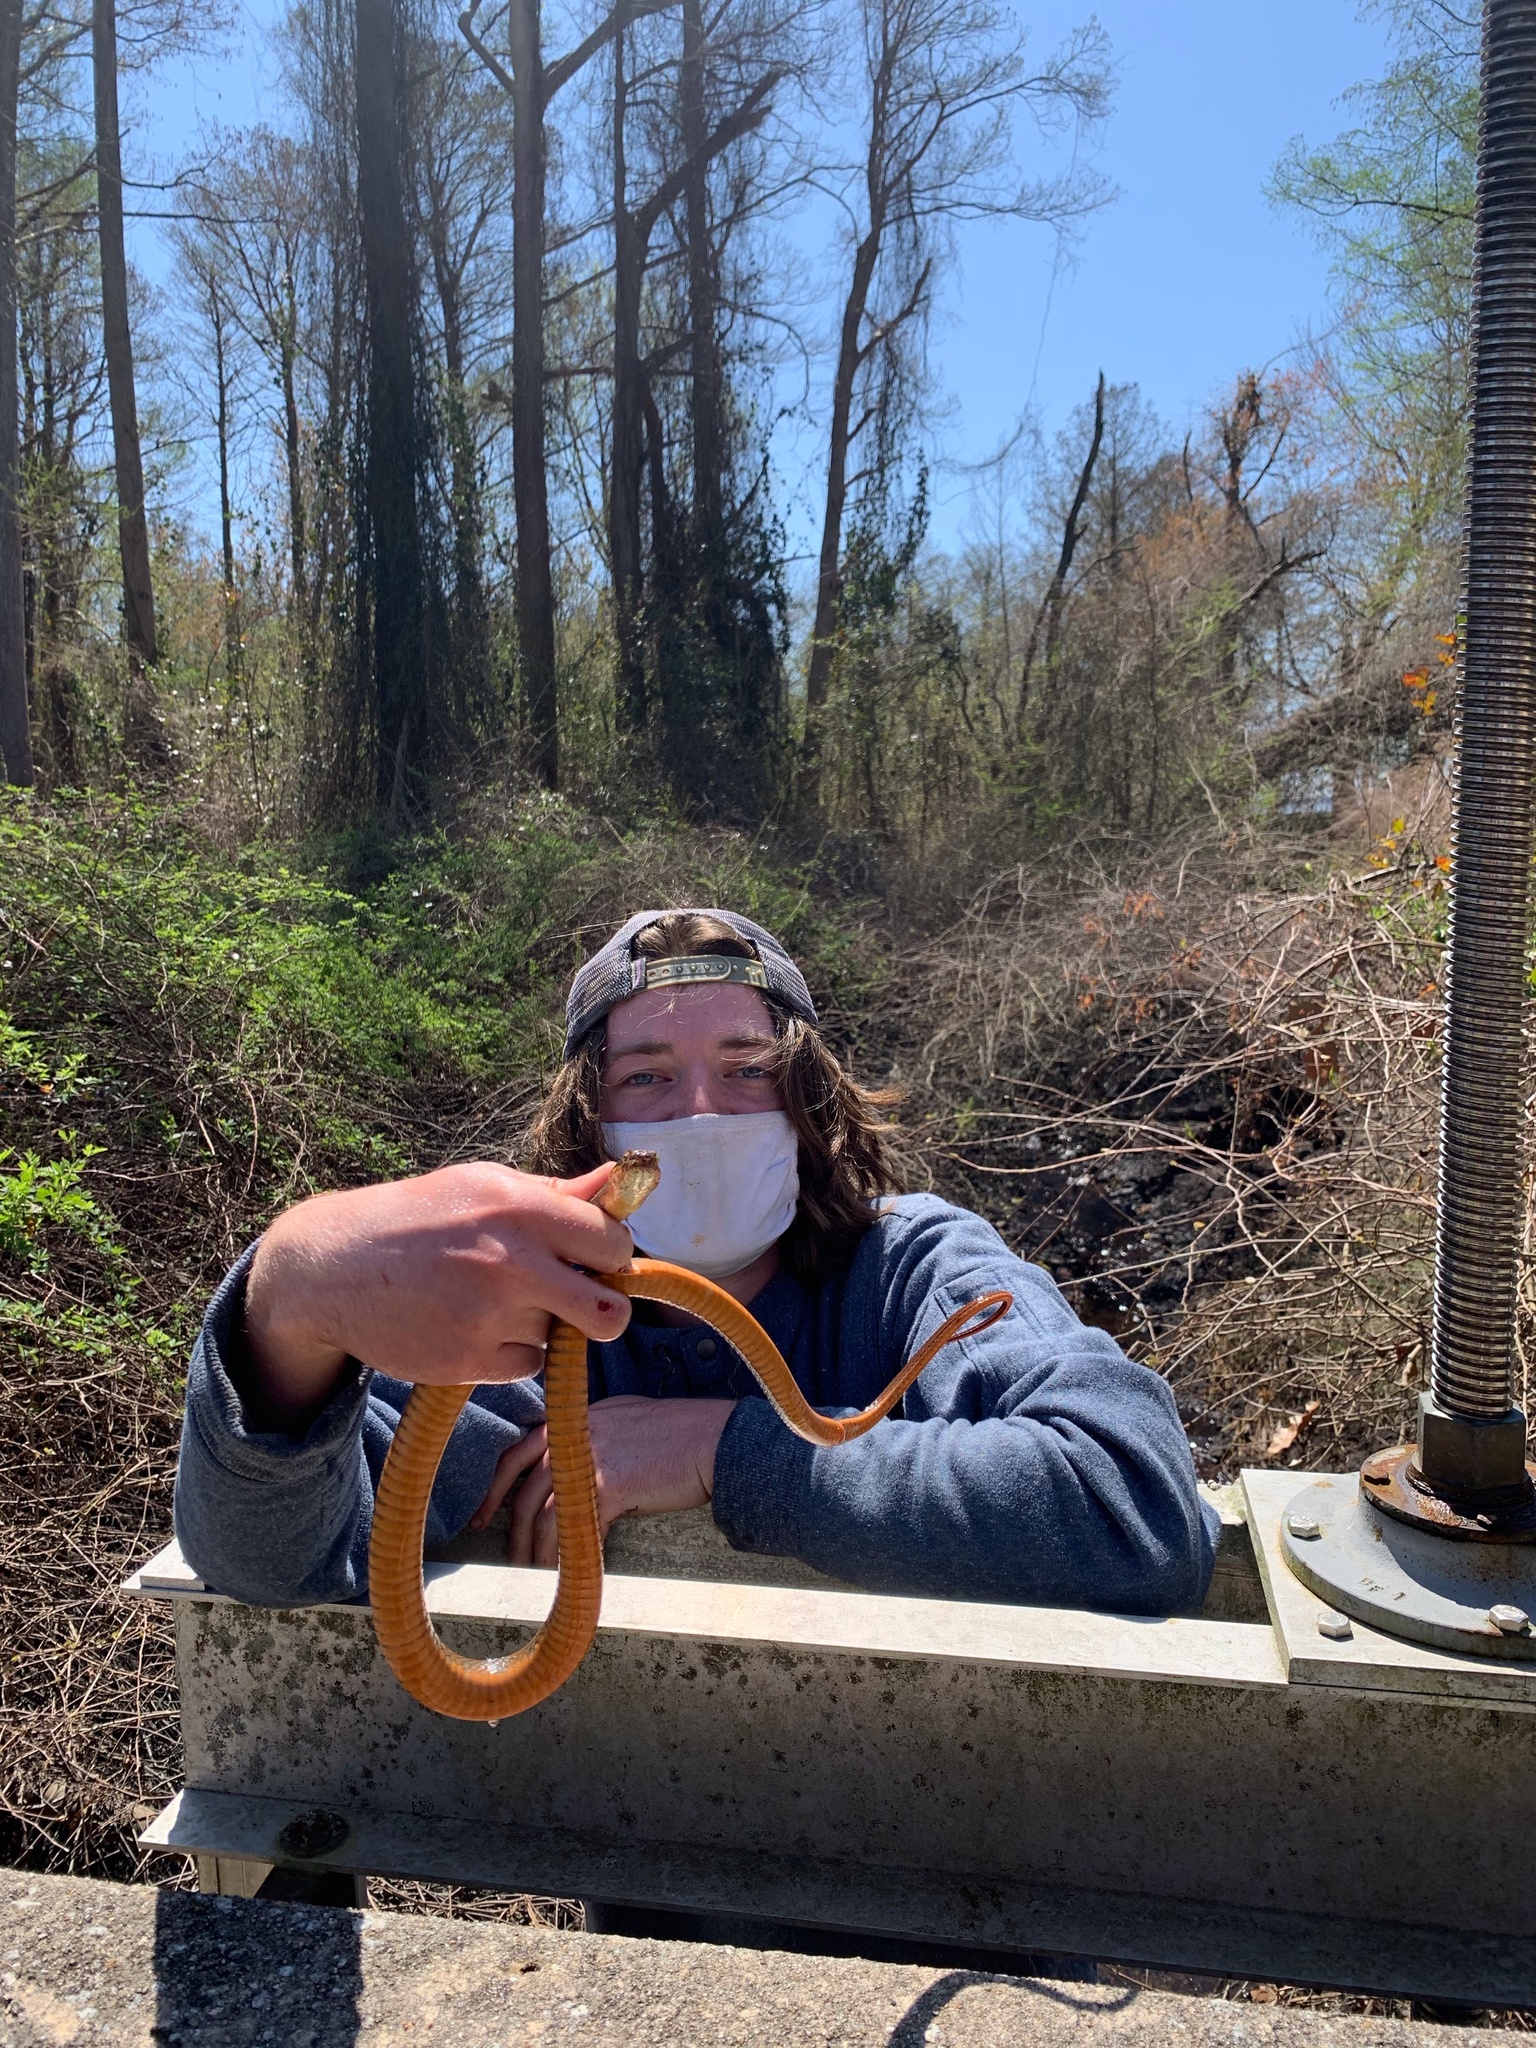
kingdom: Animalia
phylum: Chordata
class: Squamata
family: Colubridae
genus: Nerodia
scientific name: Nerodia erythrogaster
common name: Plainbelly water snake
